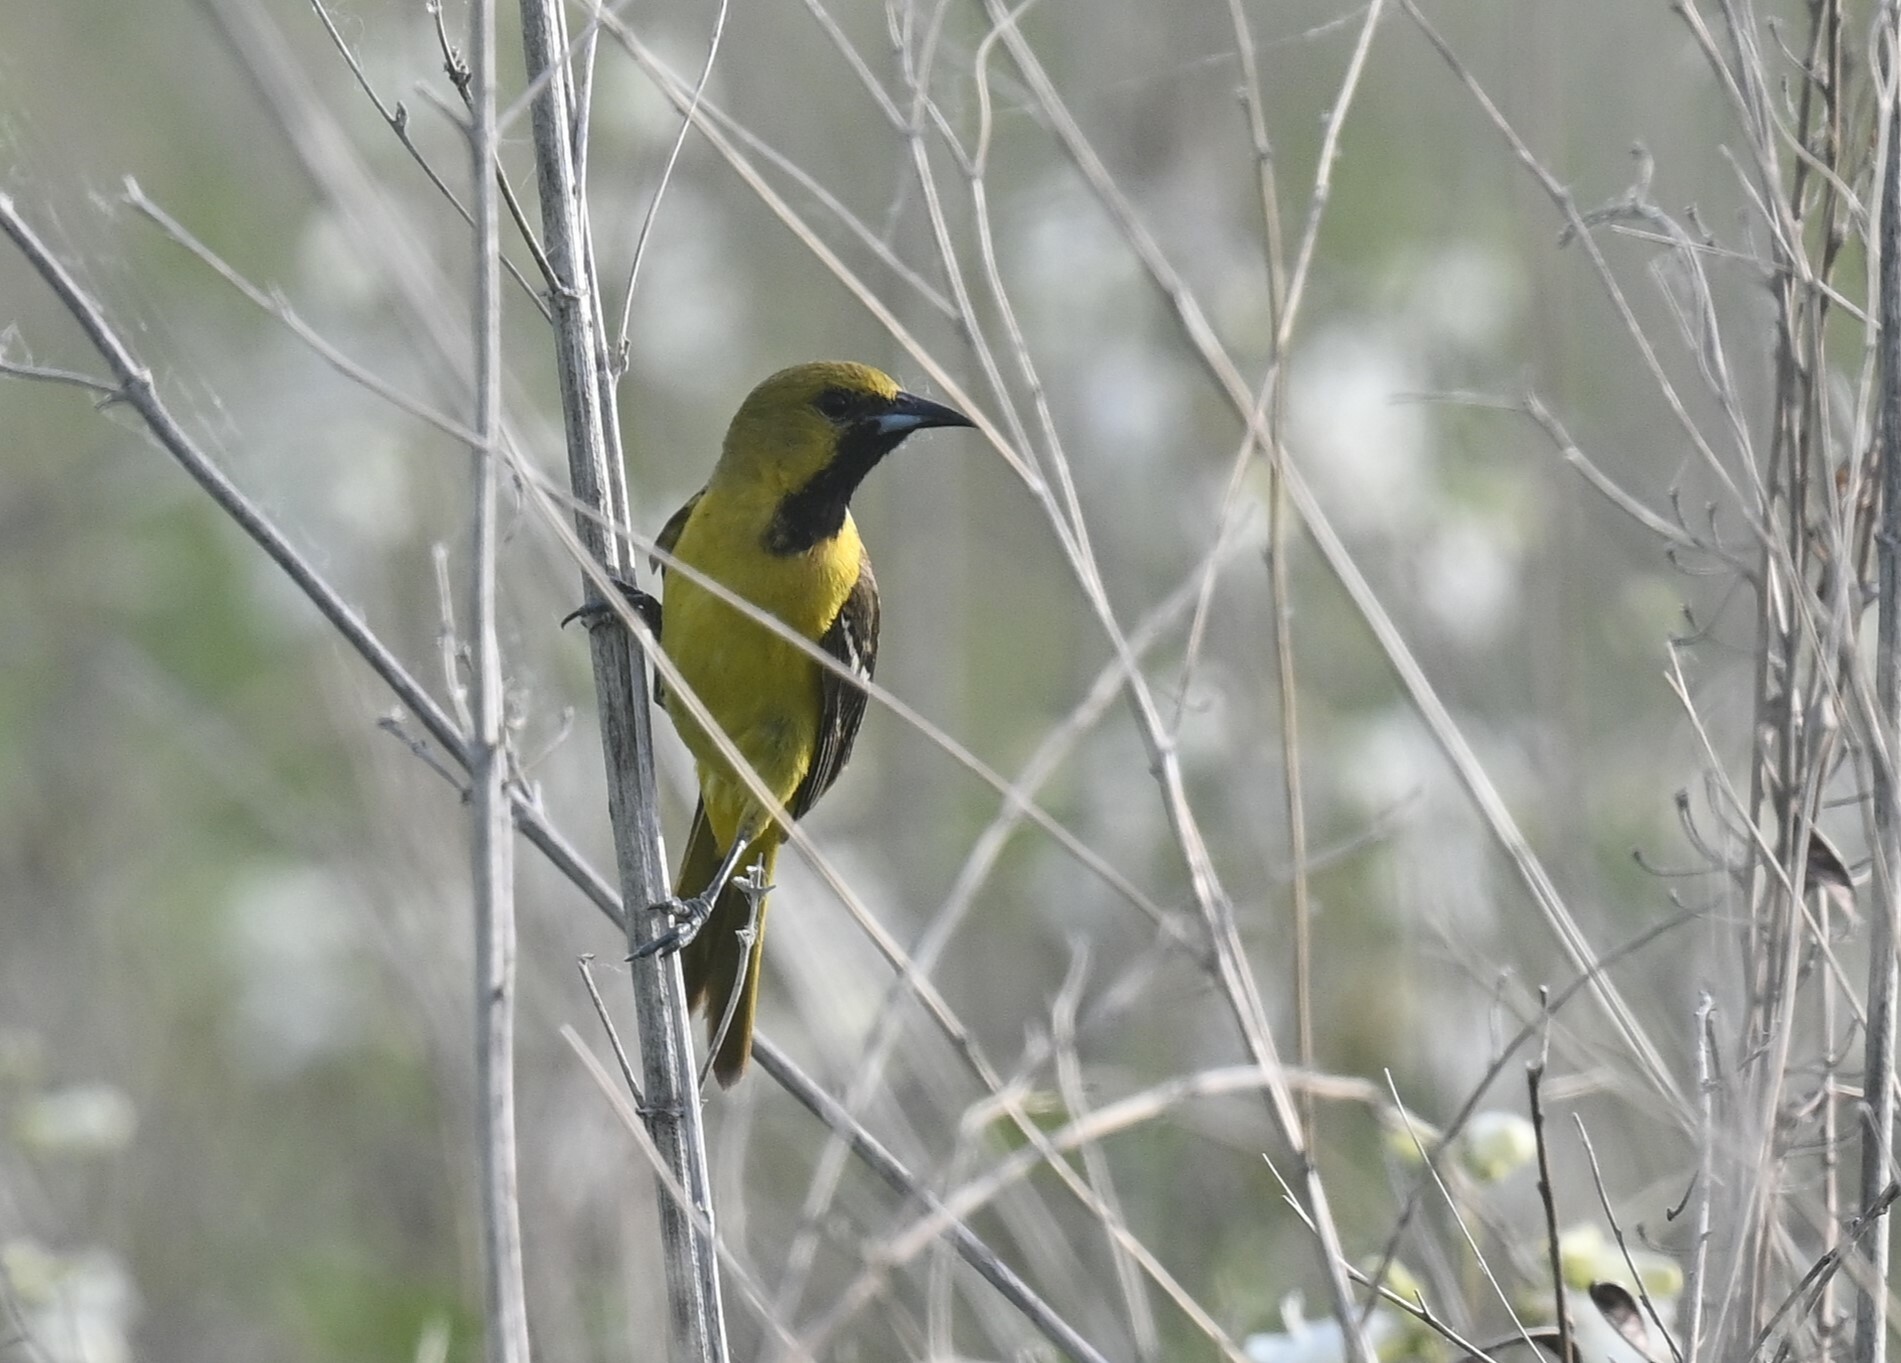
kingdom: Animalia
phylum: Chordata
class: Aves
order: Passeriformes
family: Icteridae
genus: Icterus
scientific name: Icterus spurius
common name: Orchard oriole
